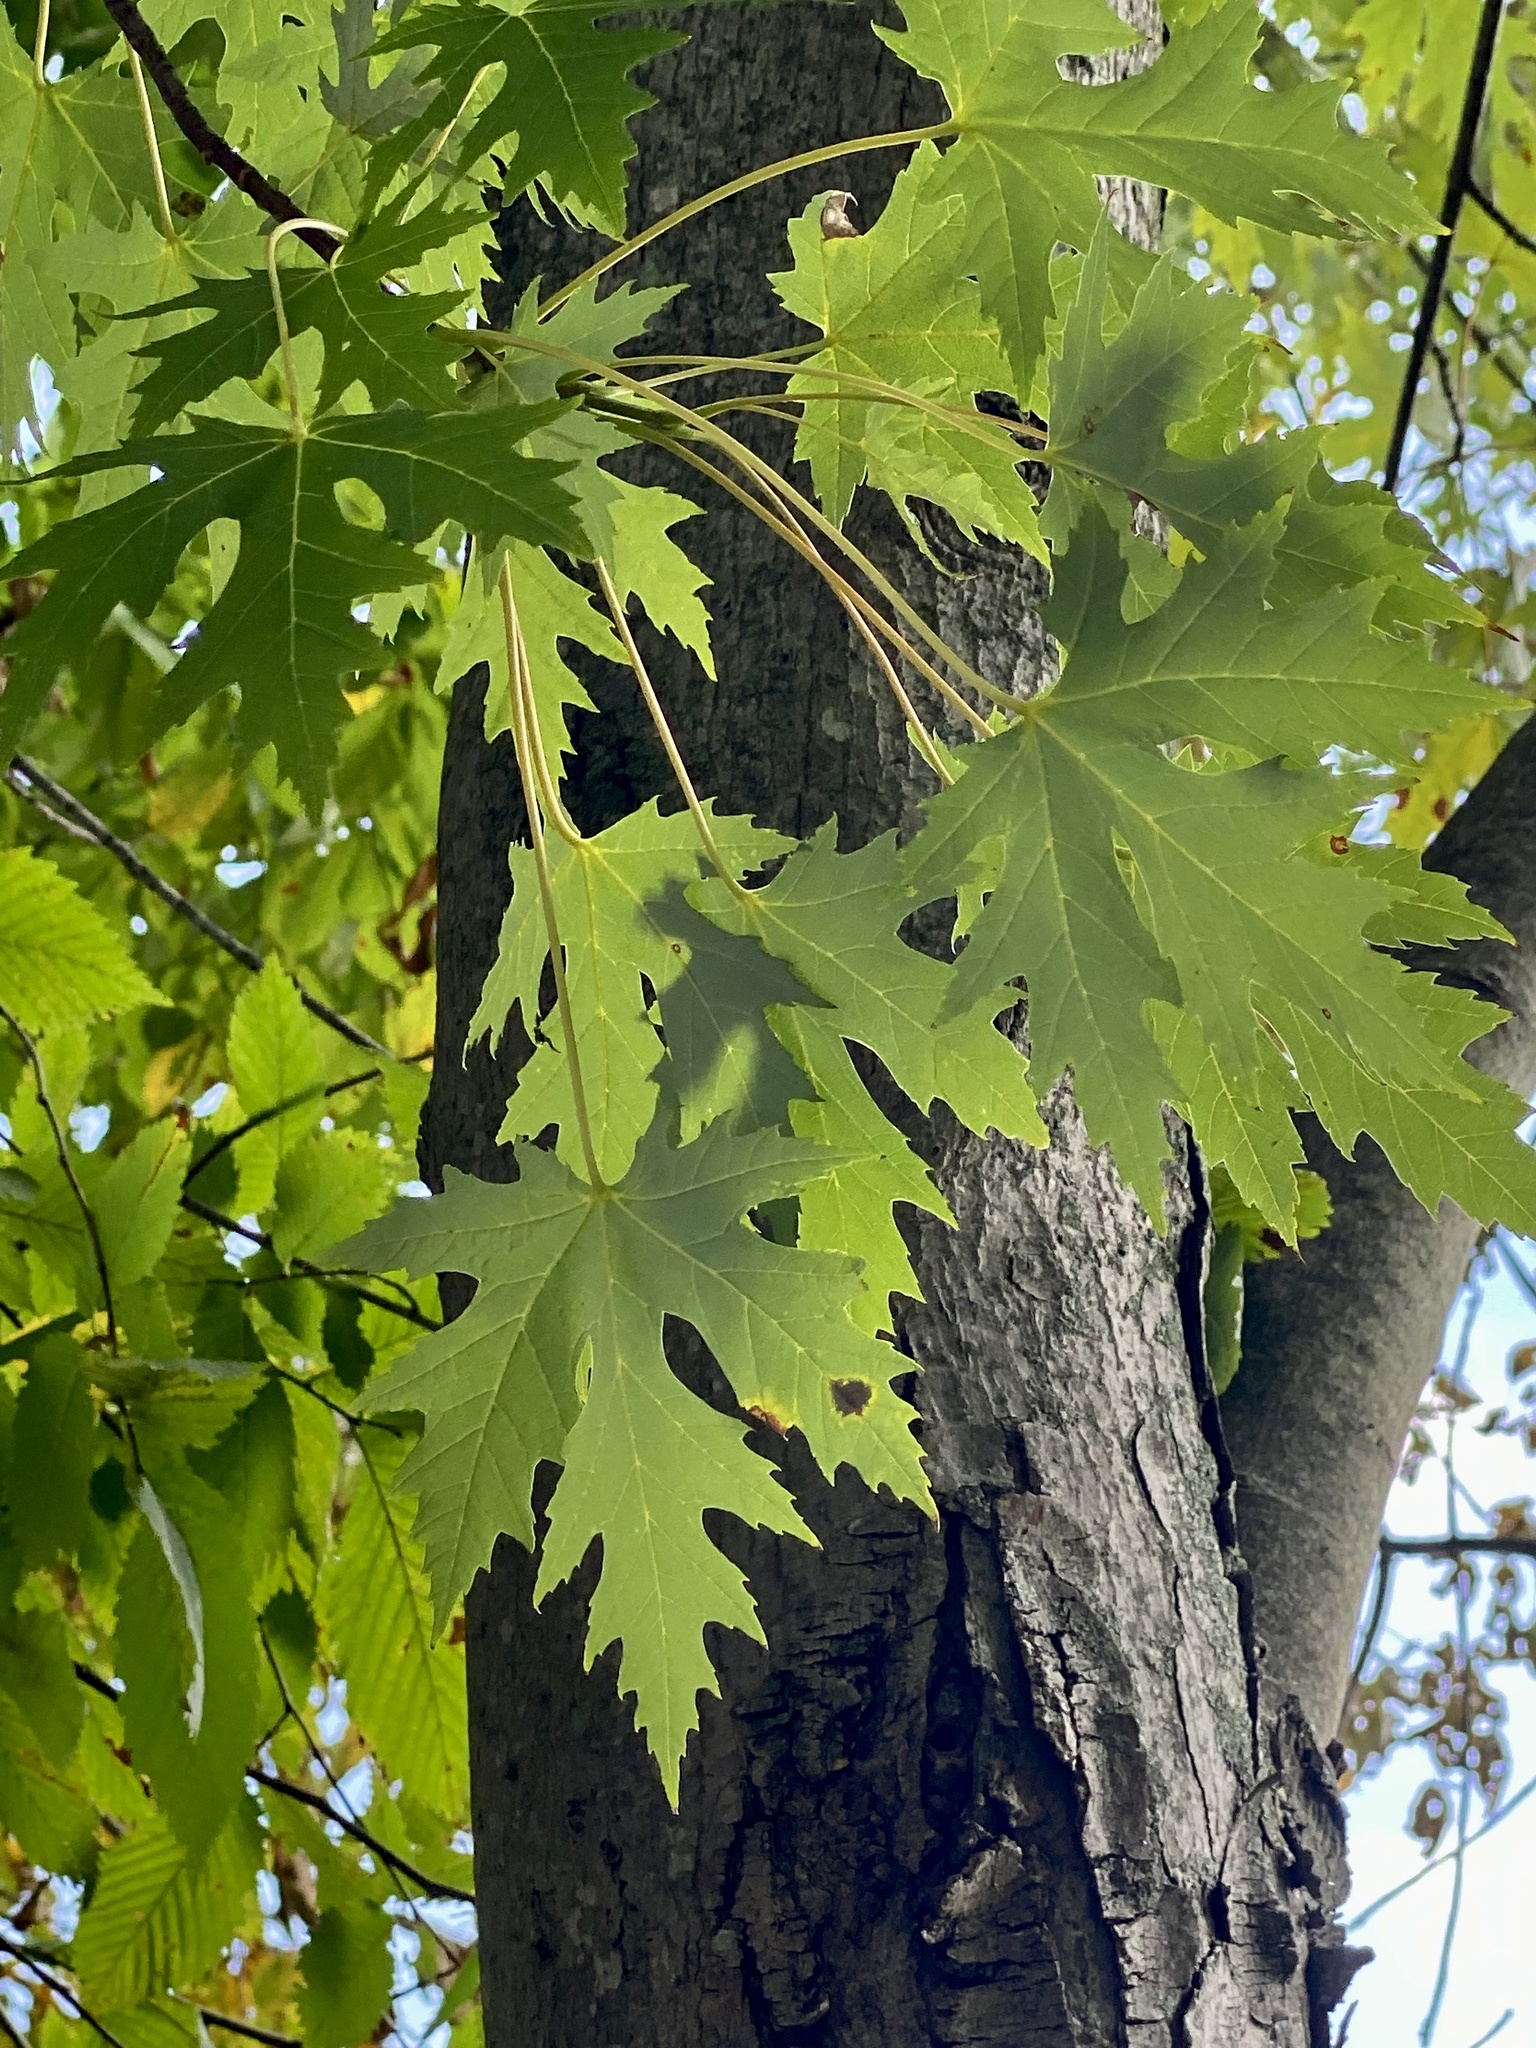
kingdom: Plantae
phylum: Tracheophyta
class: Magnoliopsida
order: Sapindales
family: Sapindaceae
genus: Acer
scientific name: Acer saccharinum
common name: Silver maple
